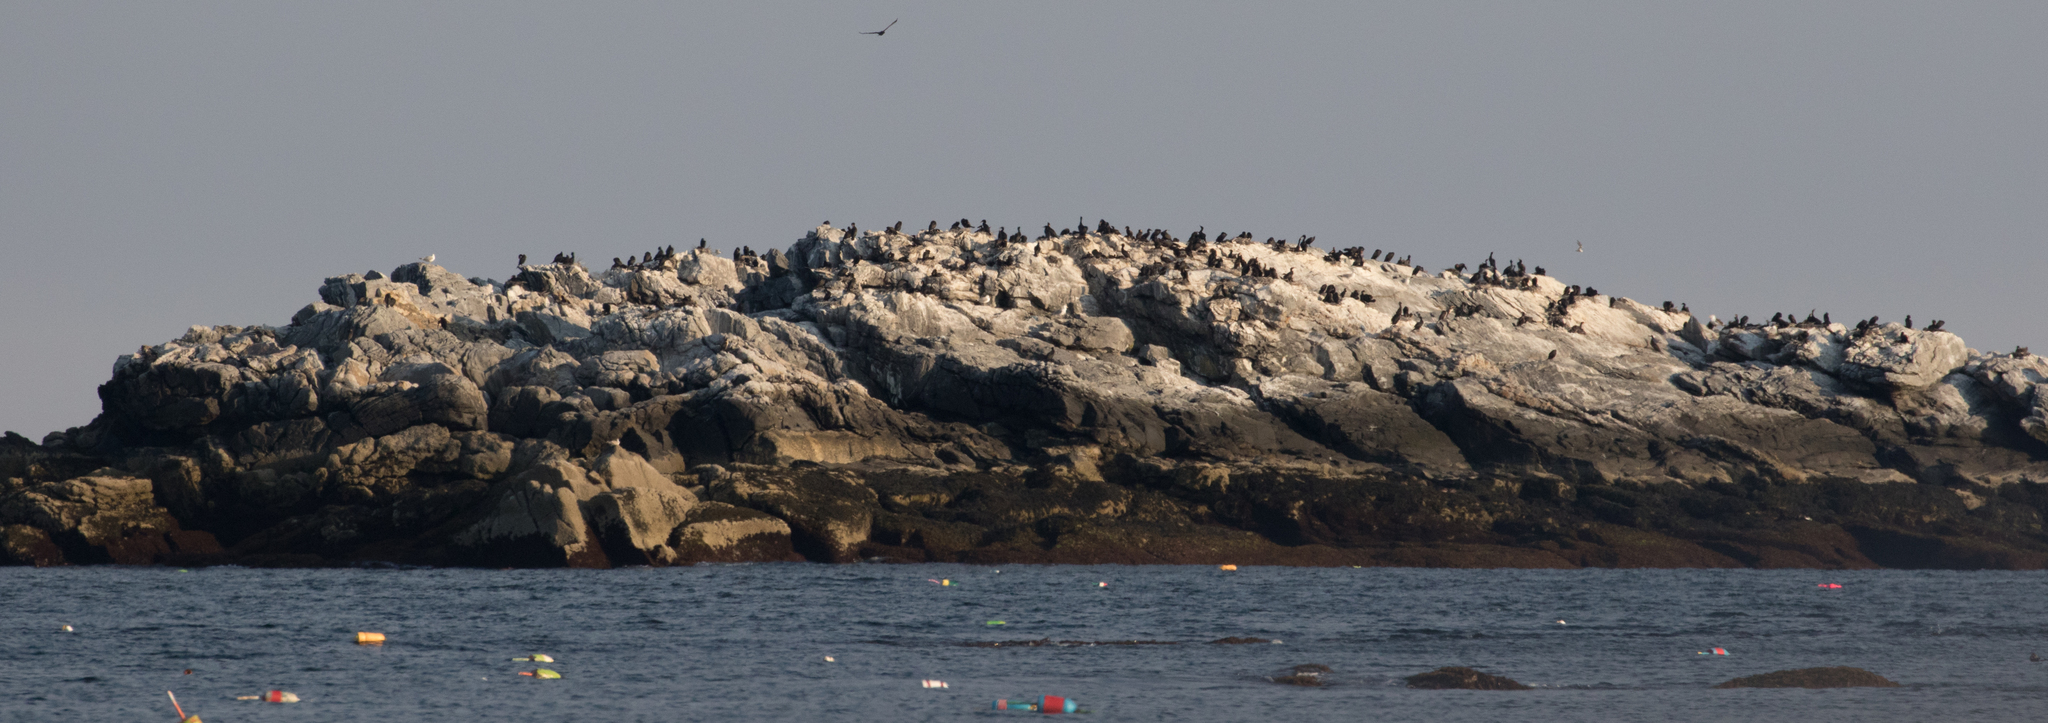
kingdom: Animalia
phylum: Chordata
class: Aves
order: Suliformes
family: Phalacrocoracidae
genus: Phalacrocorax
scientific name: Phalacrocorax auritus
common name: Double-crested cormorant
